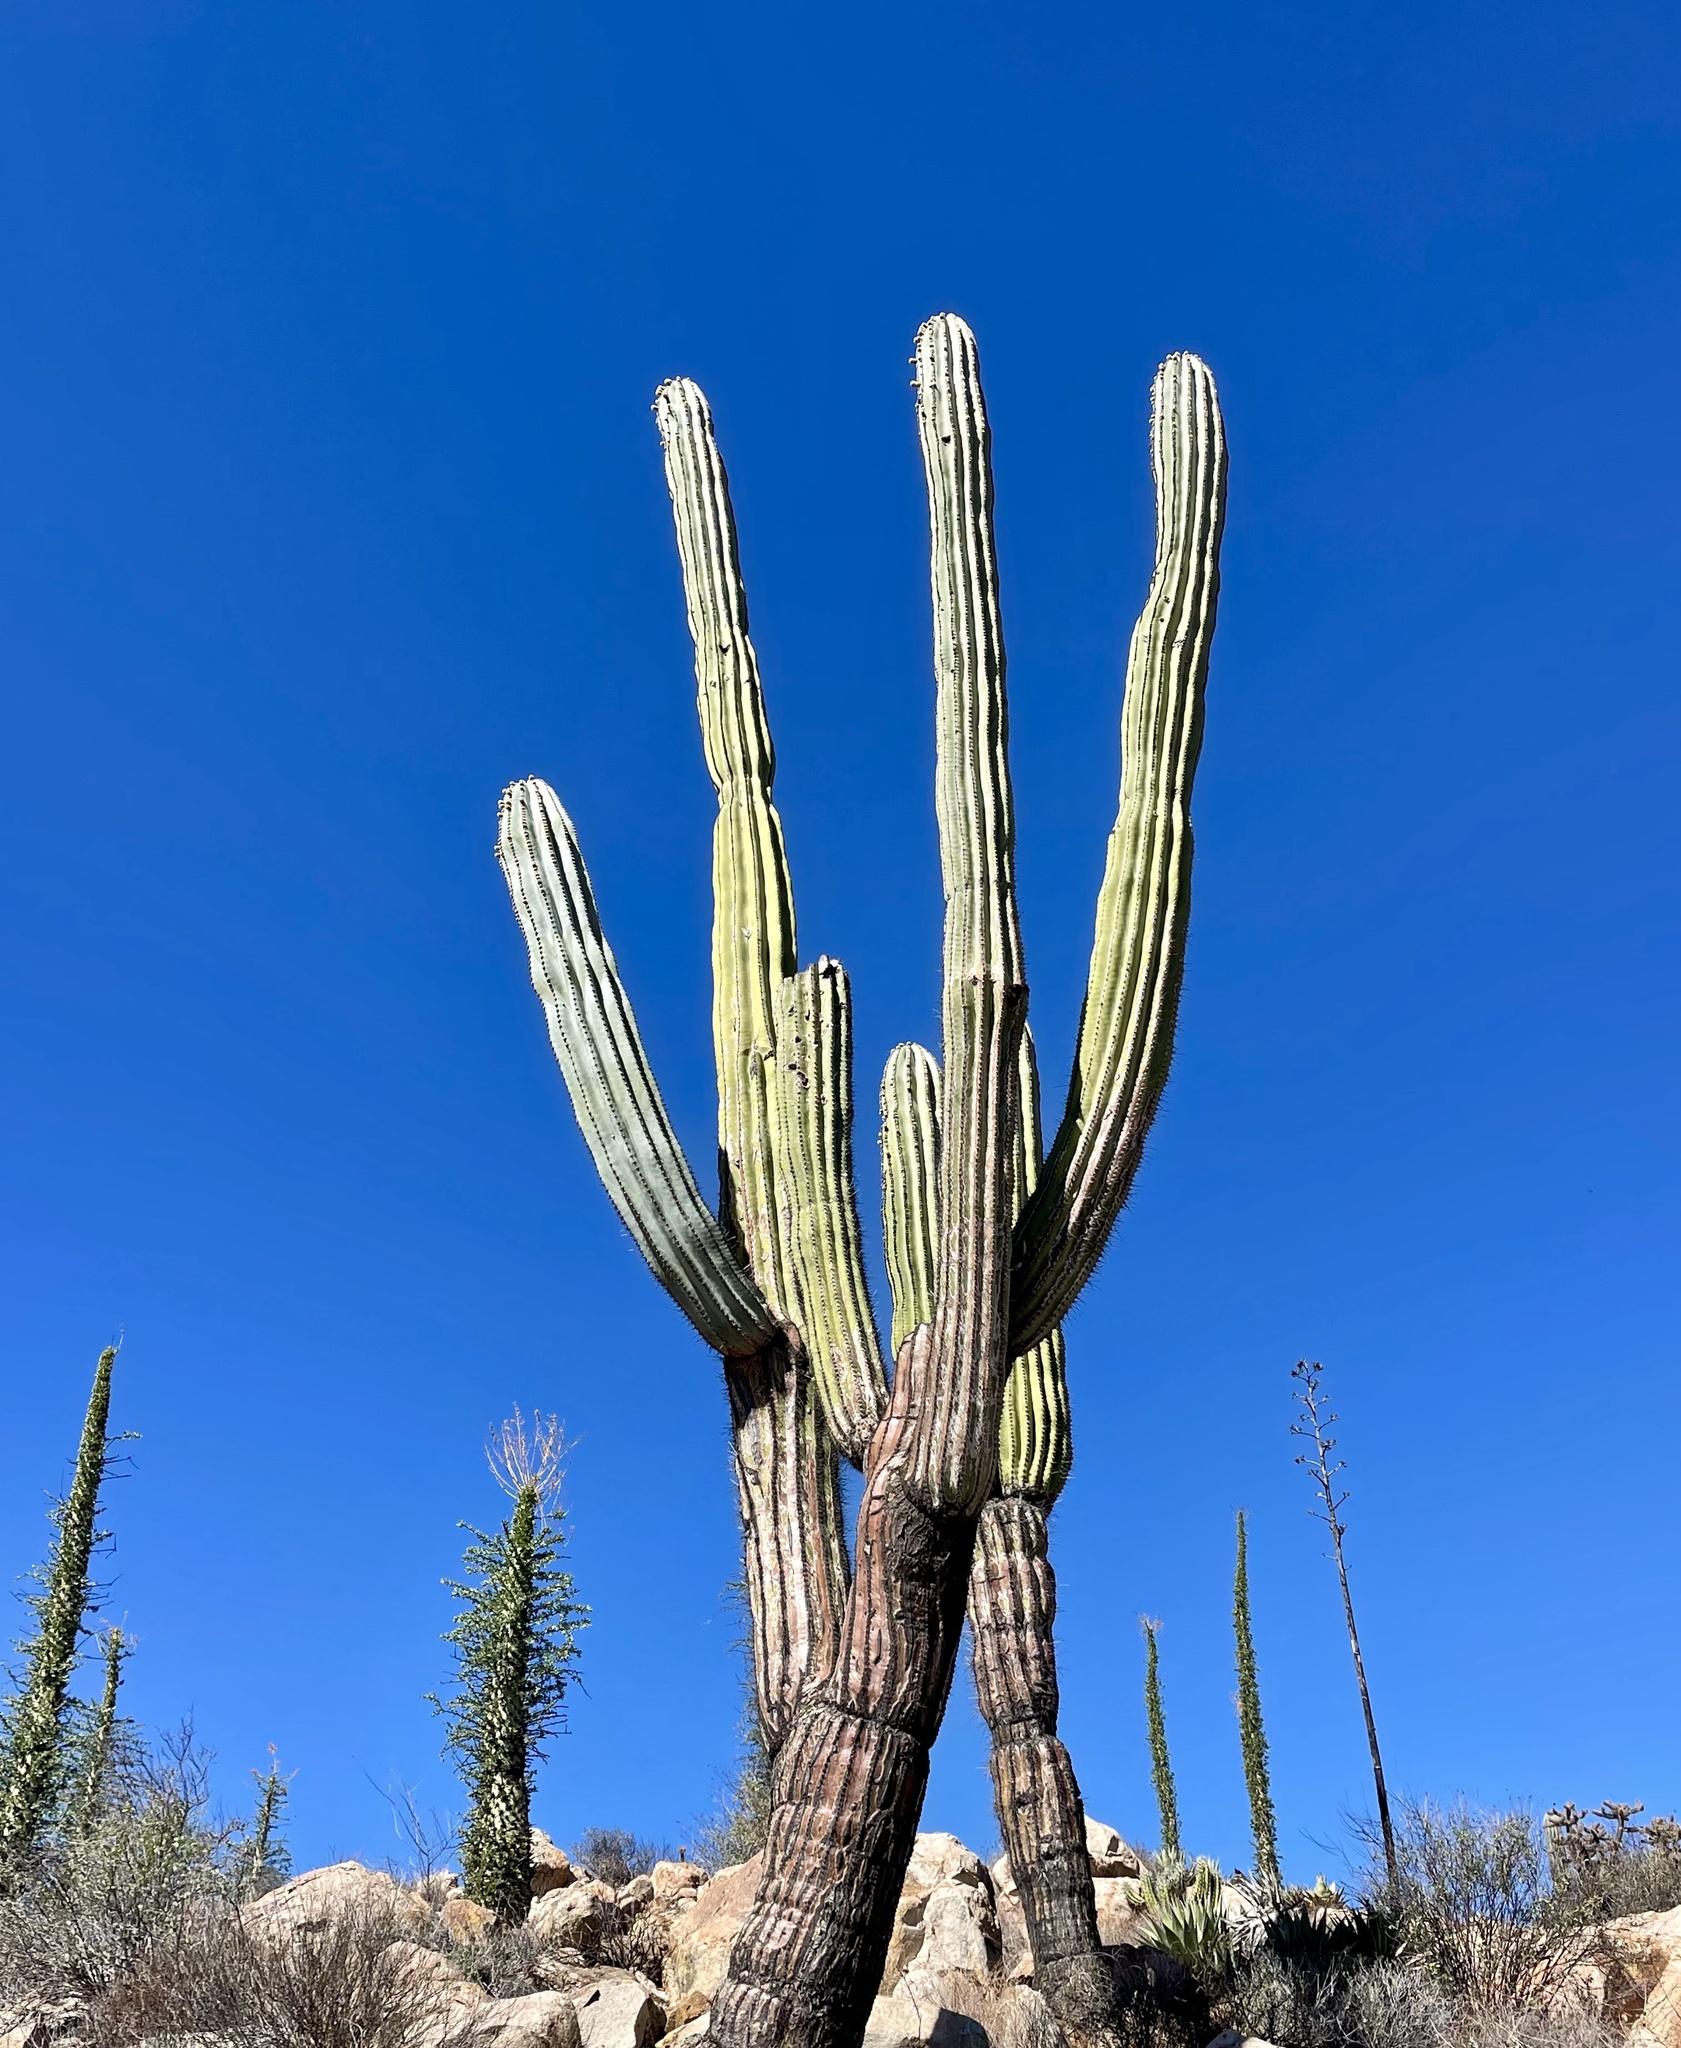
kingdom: Plantae
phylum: Tracheophyta
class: Magnoliopsida
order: Caryophyllales
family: Cactaceae
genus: Pachycereus
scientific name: Pachycereus pringlei
